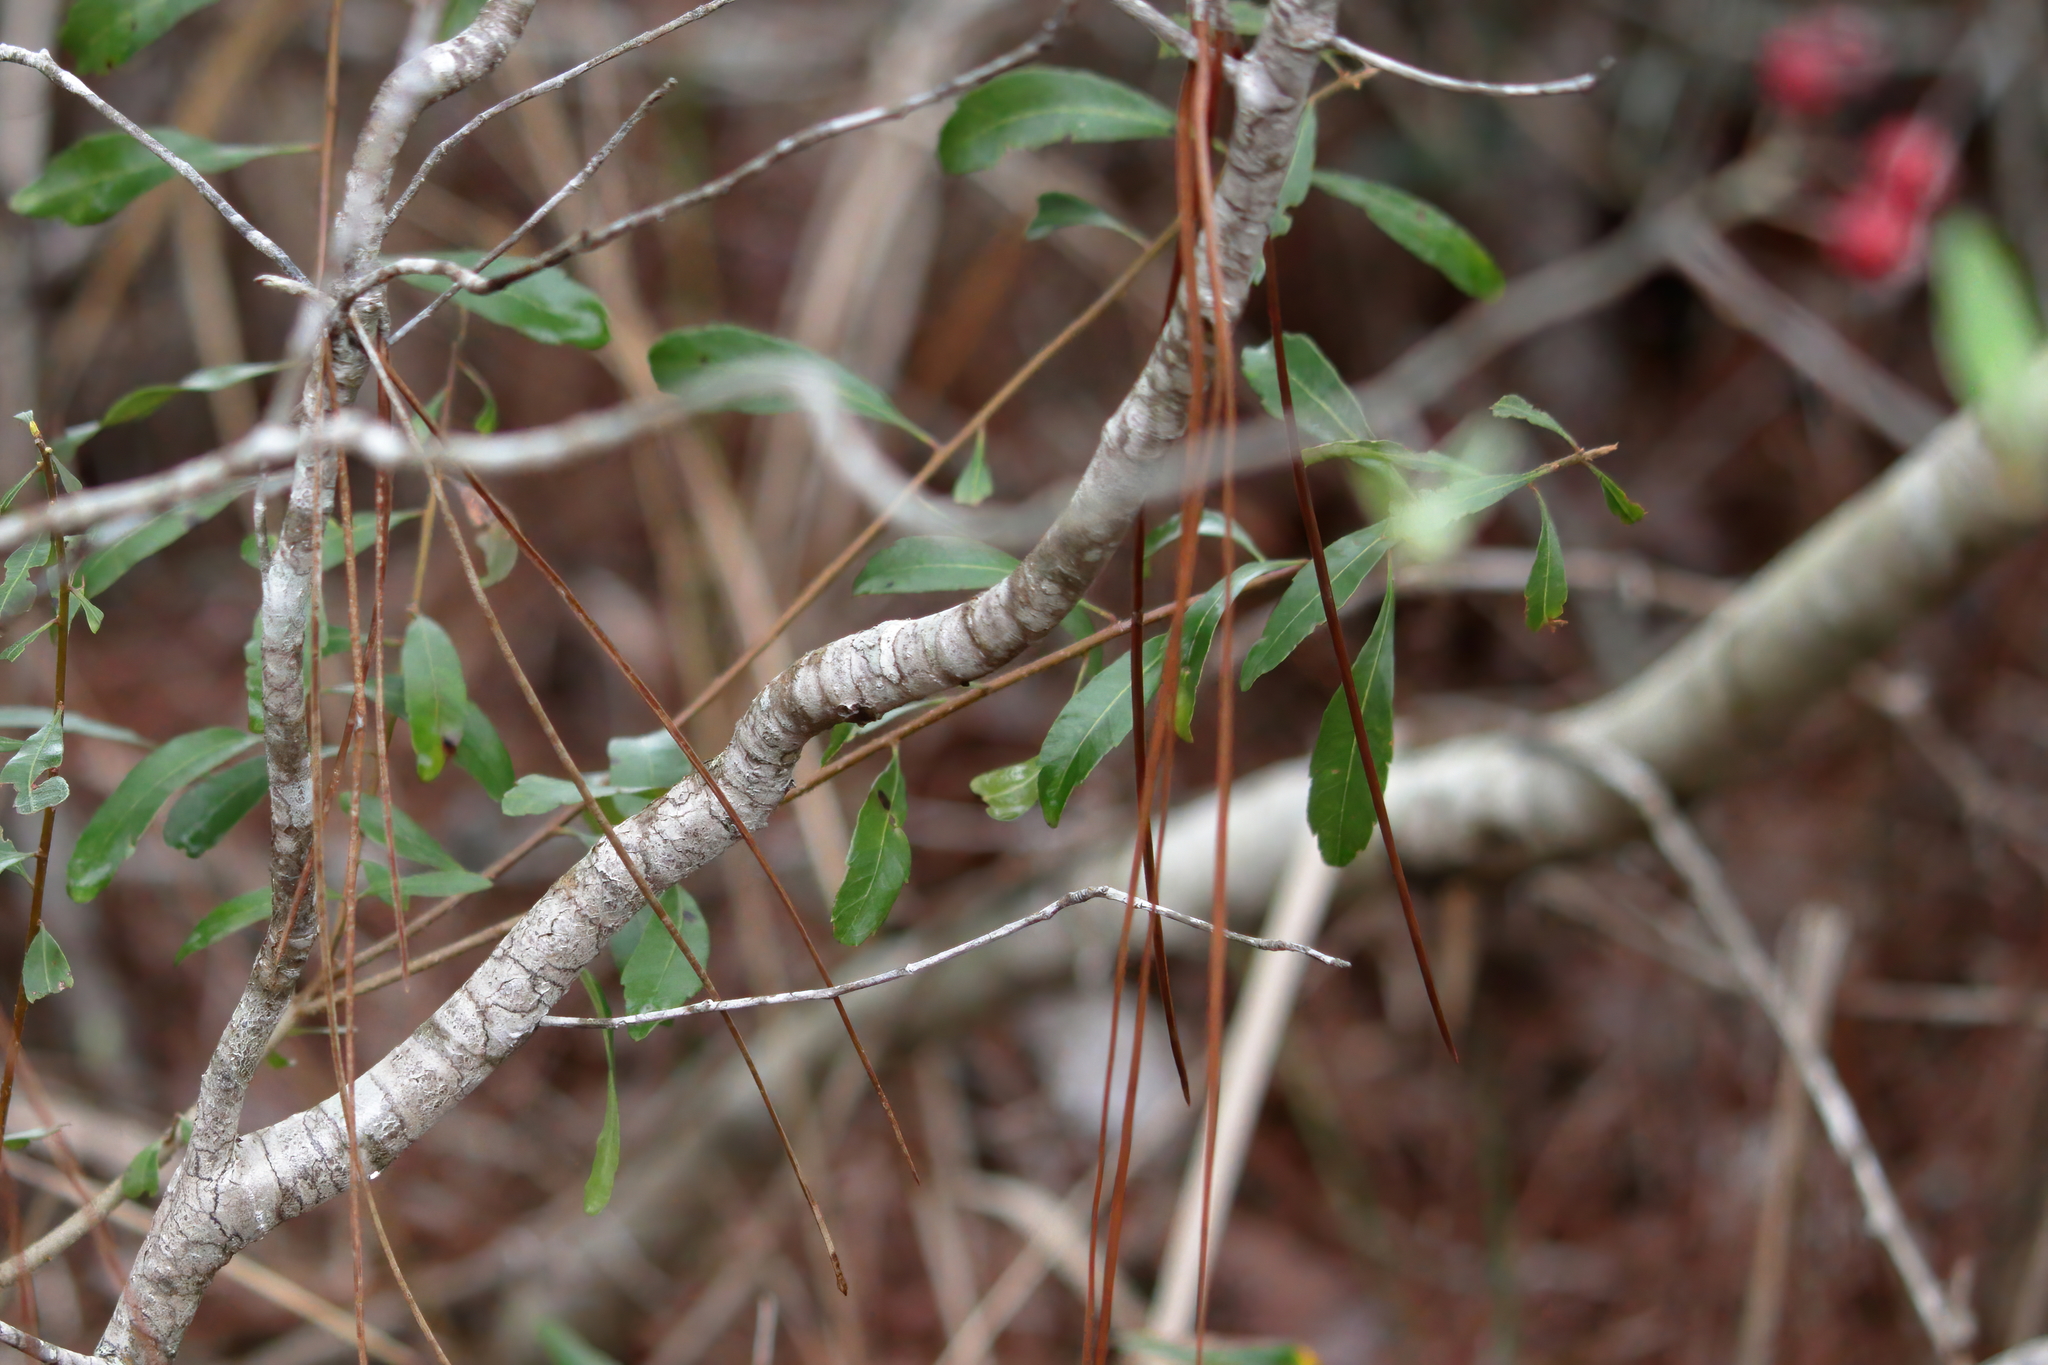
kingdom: Plantae
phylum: Tracheophyta
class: Magnoliopsida
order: Rosales
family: Rosaceae
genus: Aronia
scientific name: Aronia arbutifolia
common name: Red chokeberry
